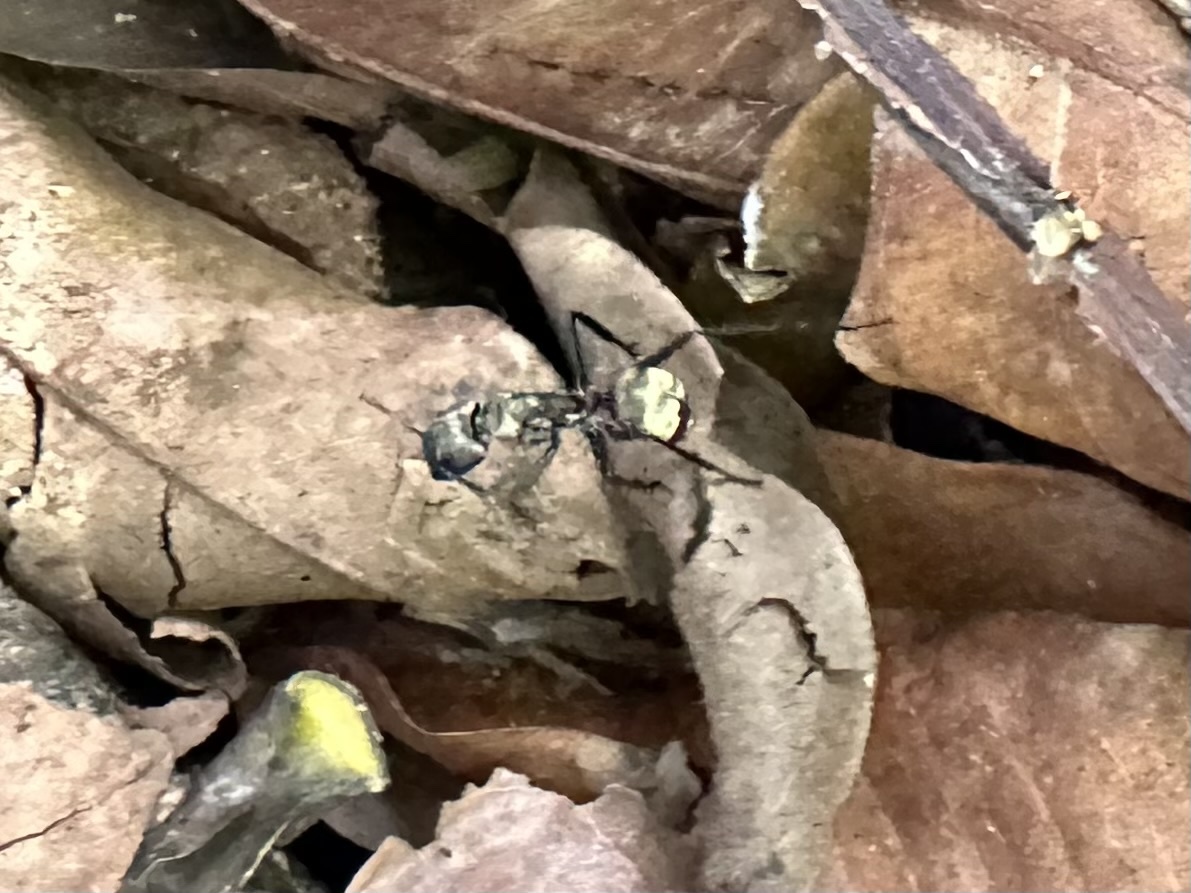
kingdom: Animalia
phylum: Arthropoda
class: Insecta
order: Hymenoptera
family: Formicidae
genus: Camponotus
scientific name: Camponotus sericeiventris
